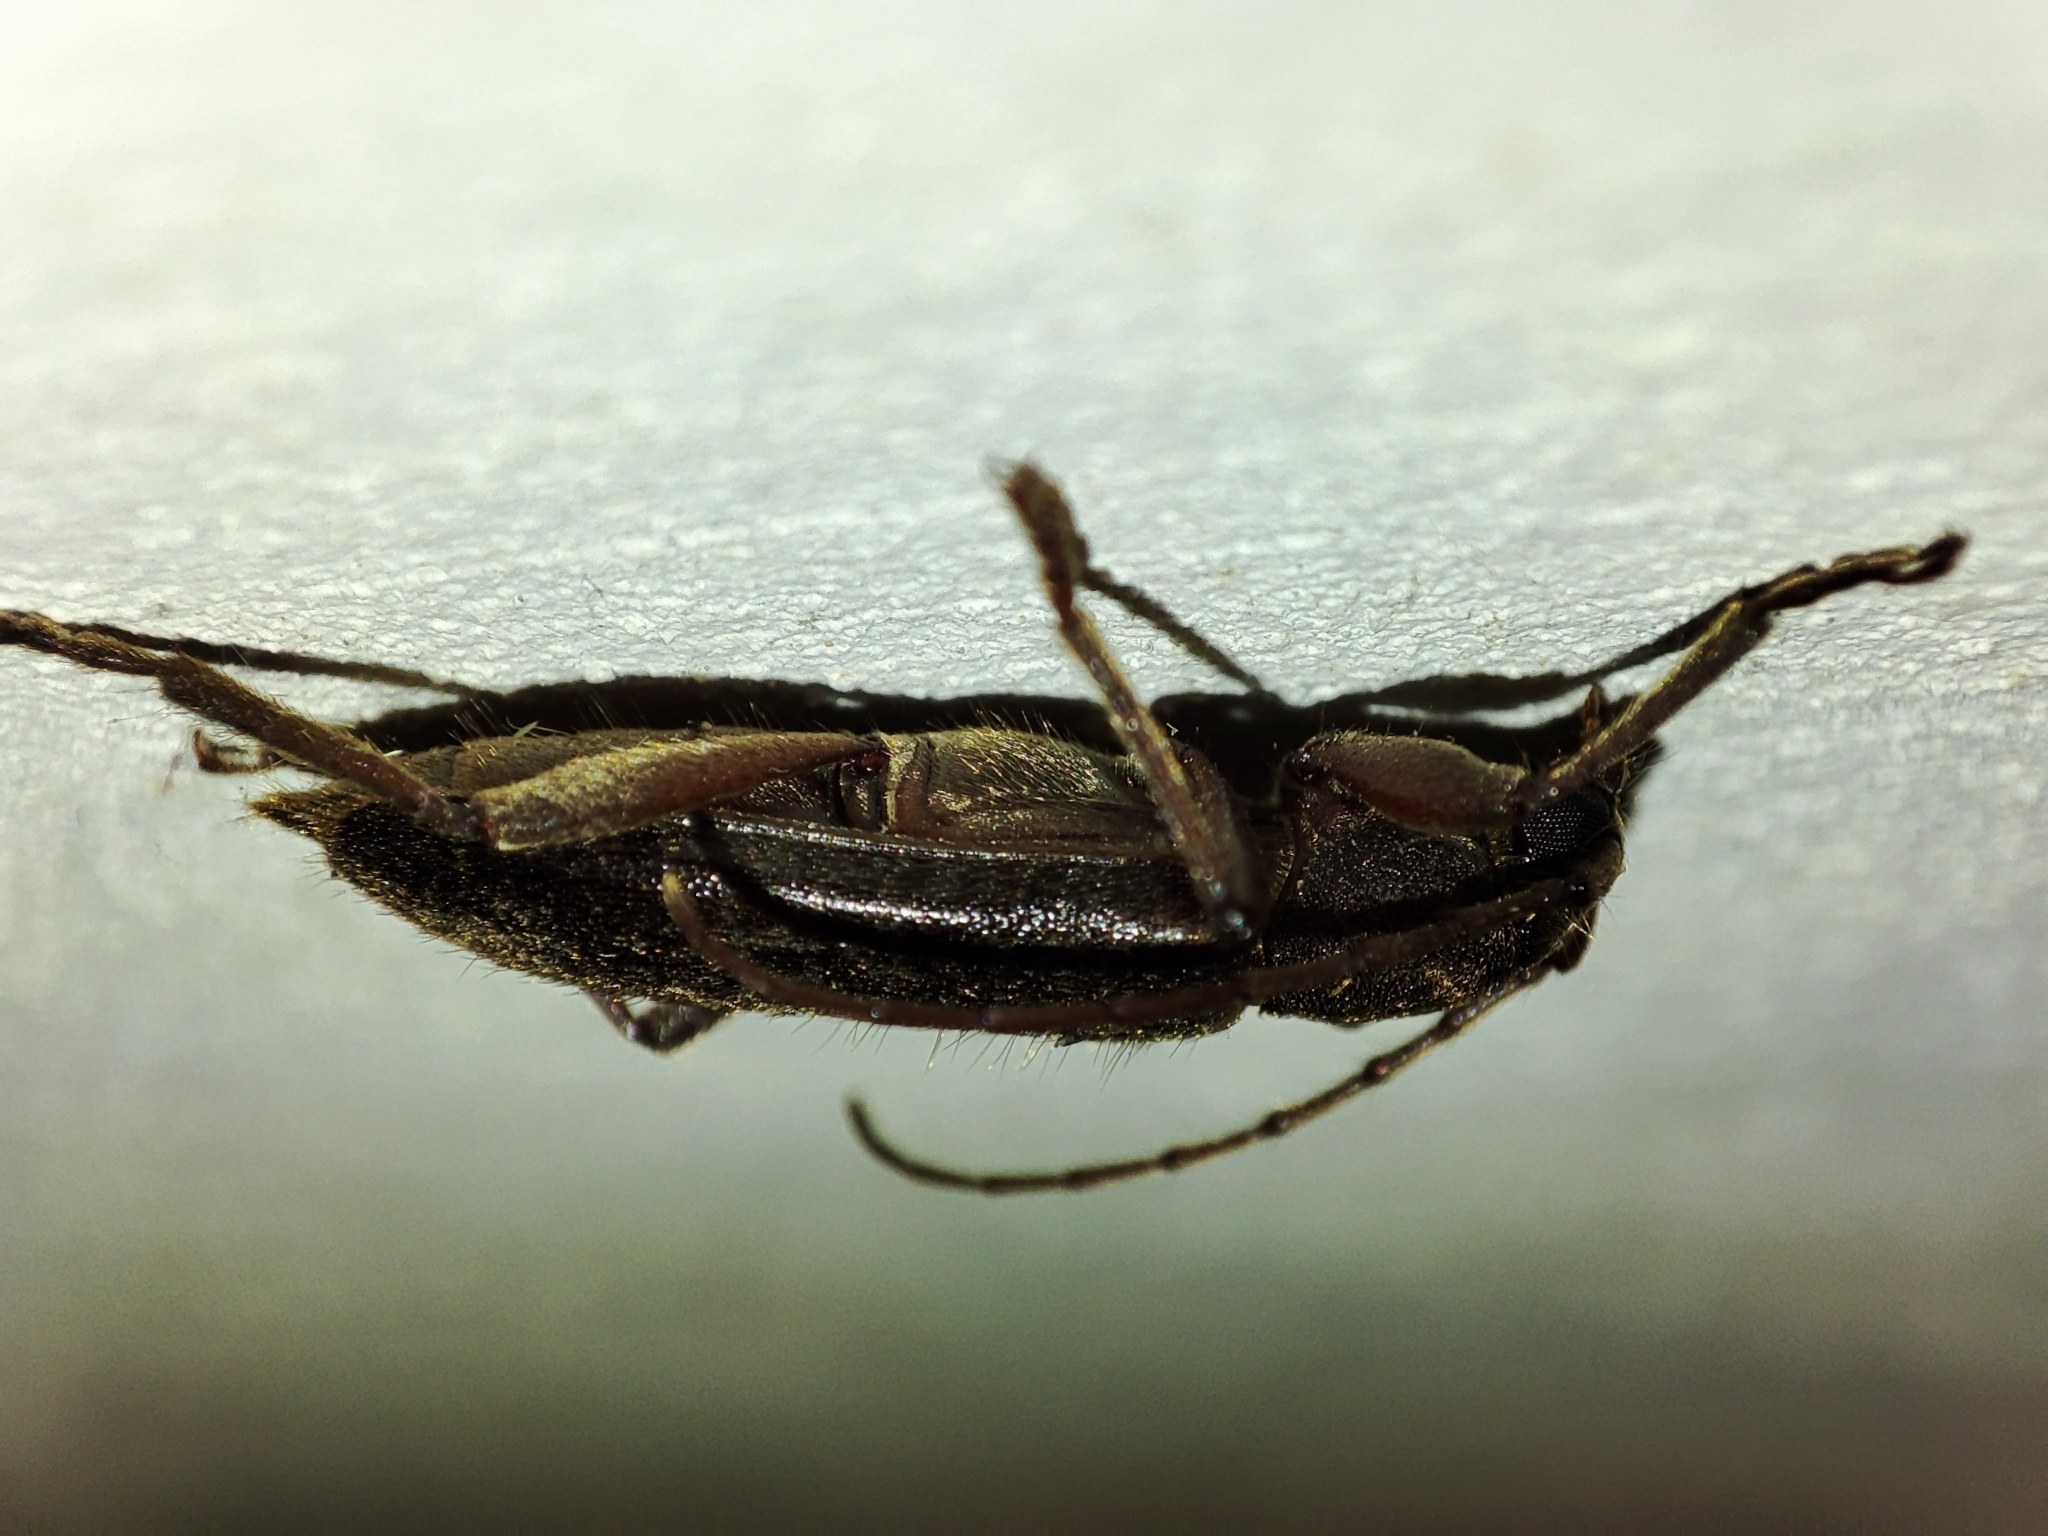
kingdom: Animalia
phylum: Arthropoda
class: Insecta
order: Coleoptera
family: Cerambycidae
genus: Trichoferus
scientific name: Trichoferus campestris
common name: Velvet long horned beetle
